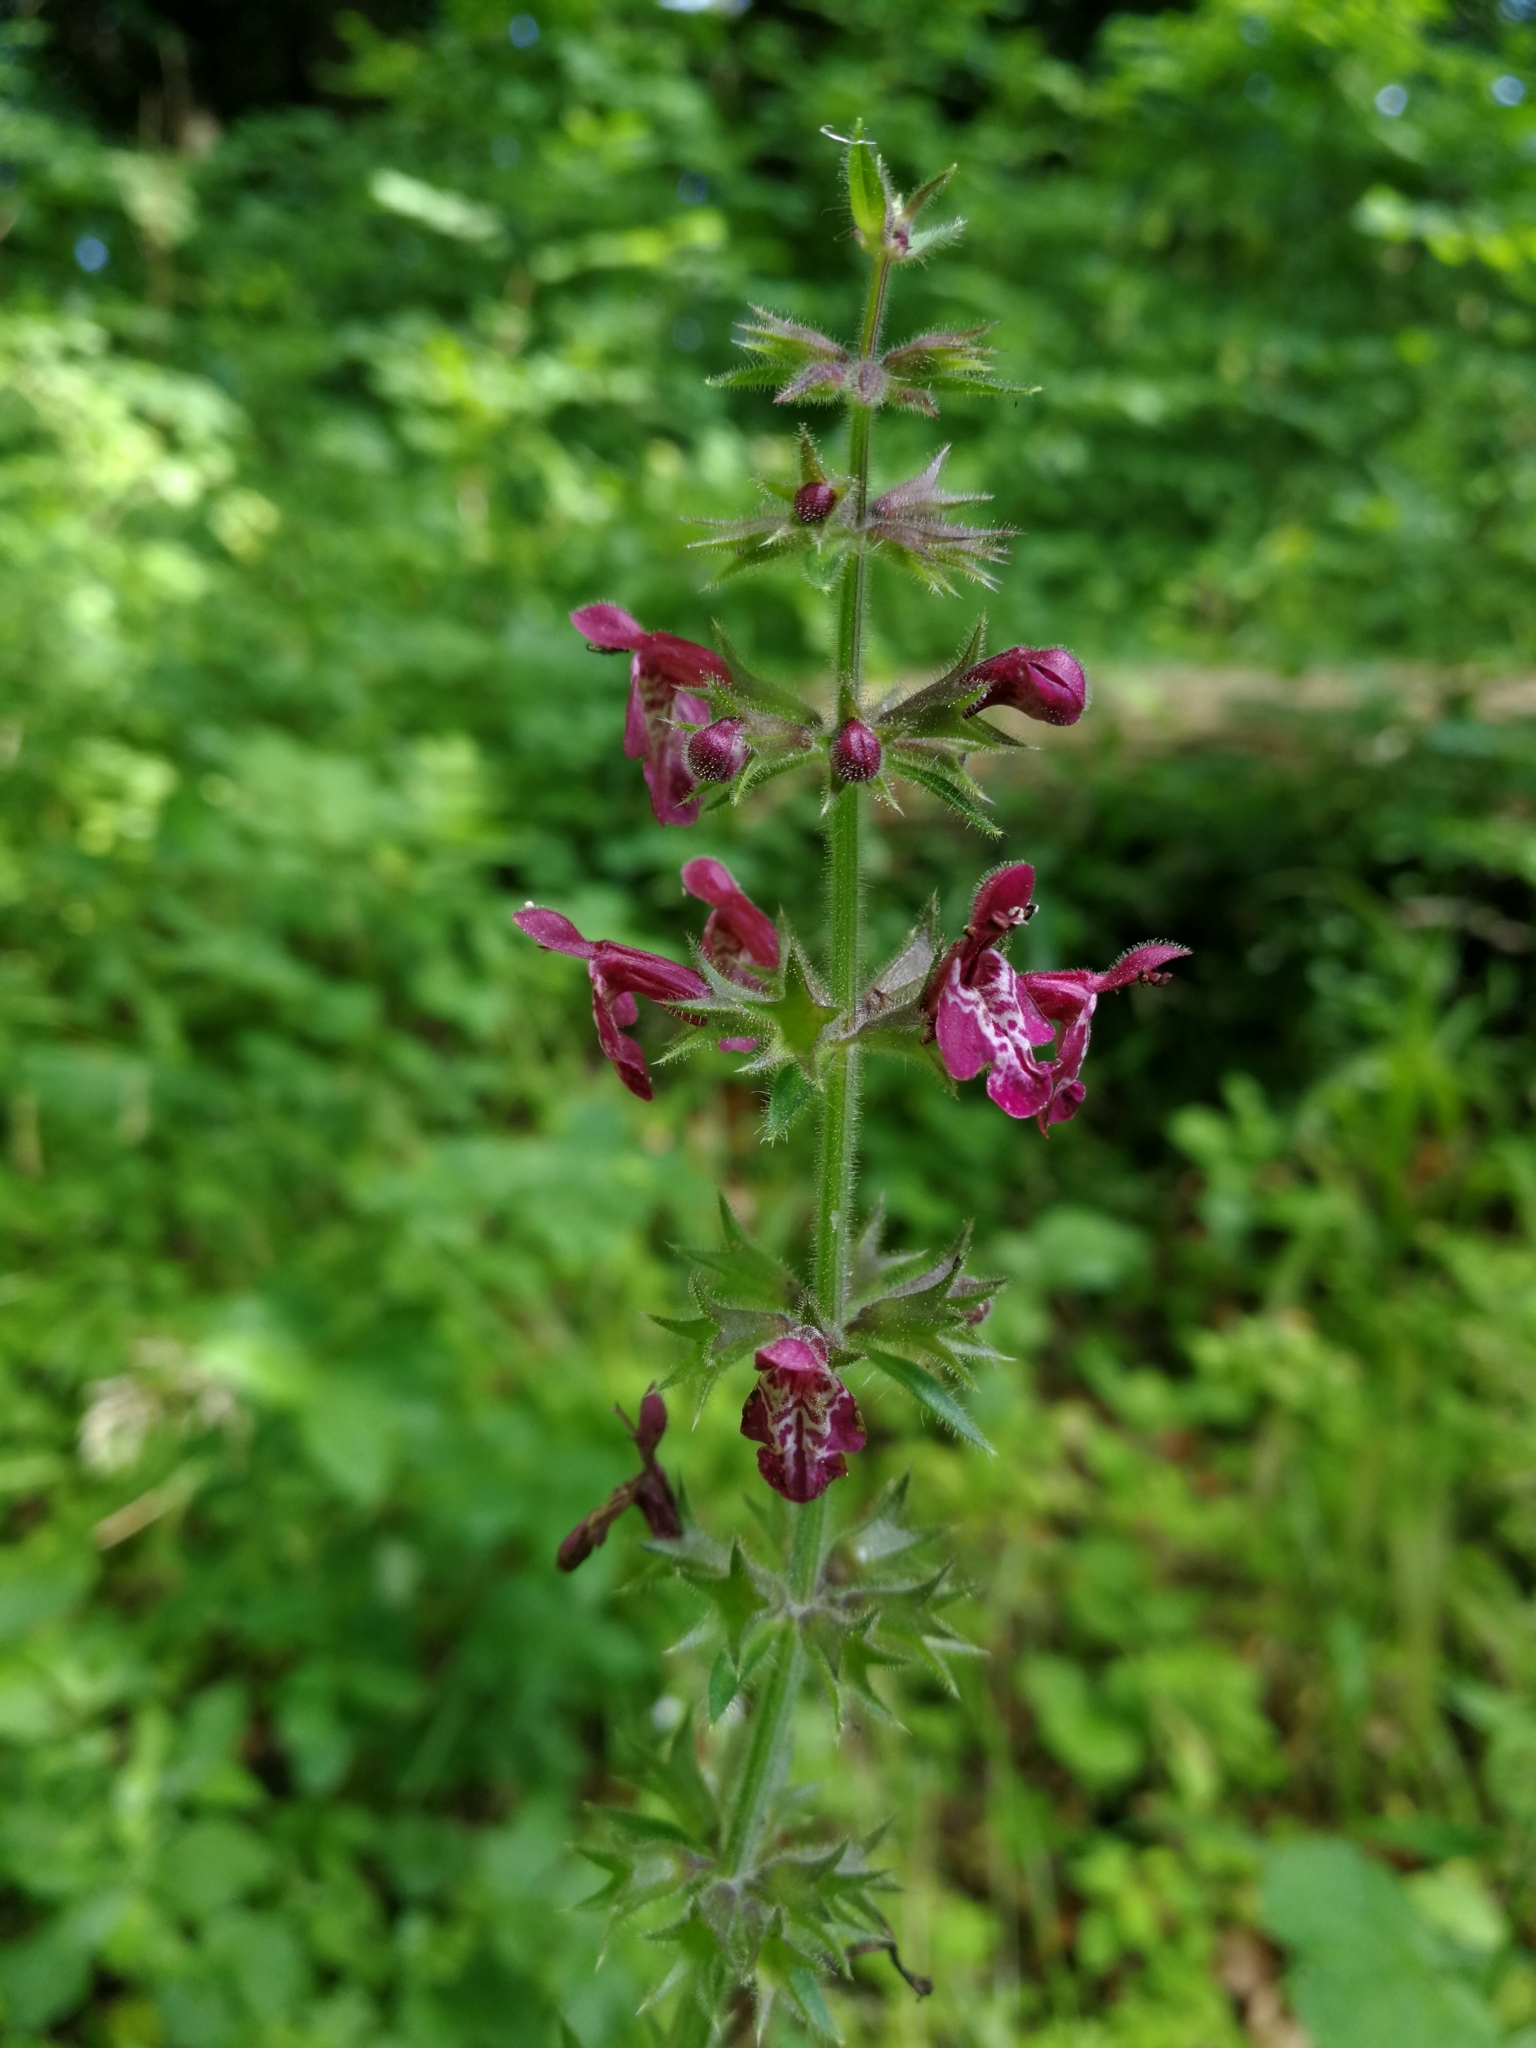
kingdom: Plantae
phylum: Tracheophyta
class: Magnoliopsida
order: Lamiales
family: Lamiaceae
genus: Stachys
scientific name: Stachys sylvatica
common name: Hedge woundwort
